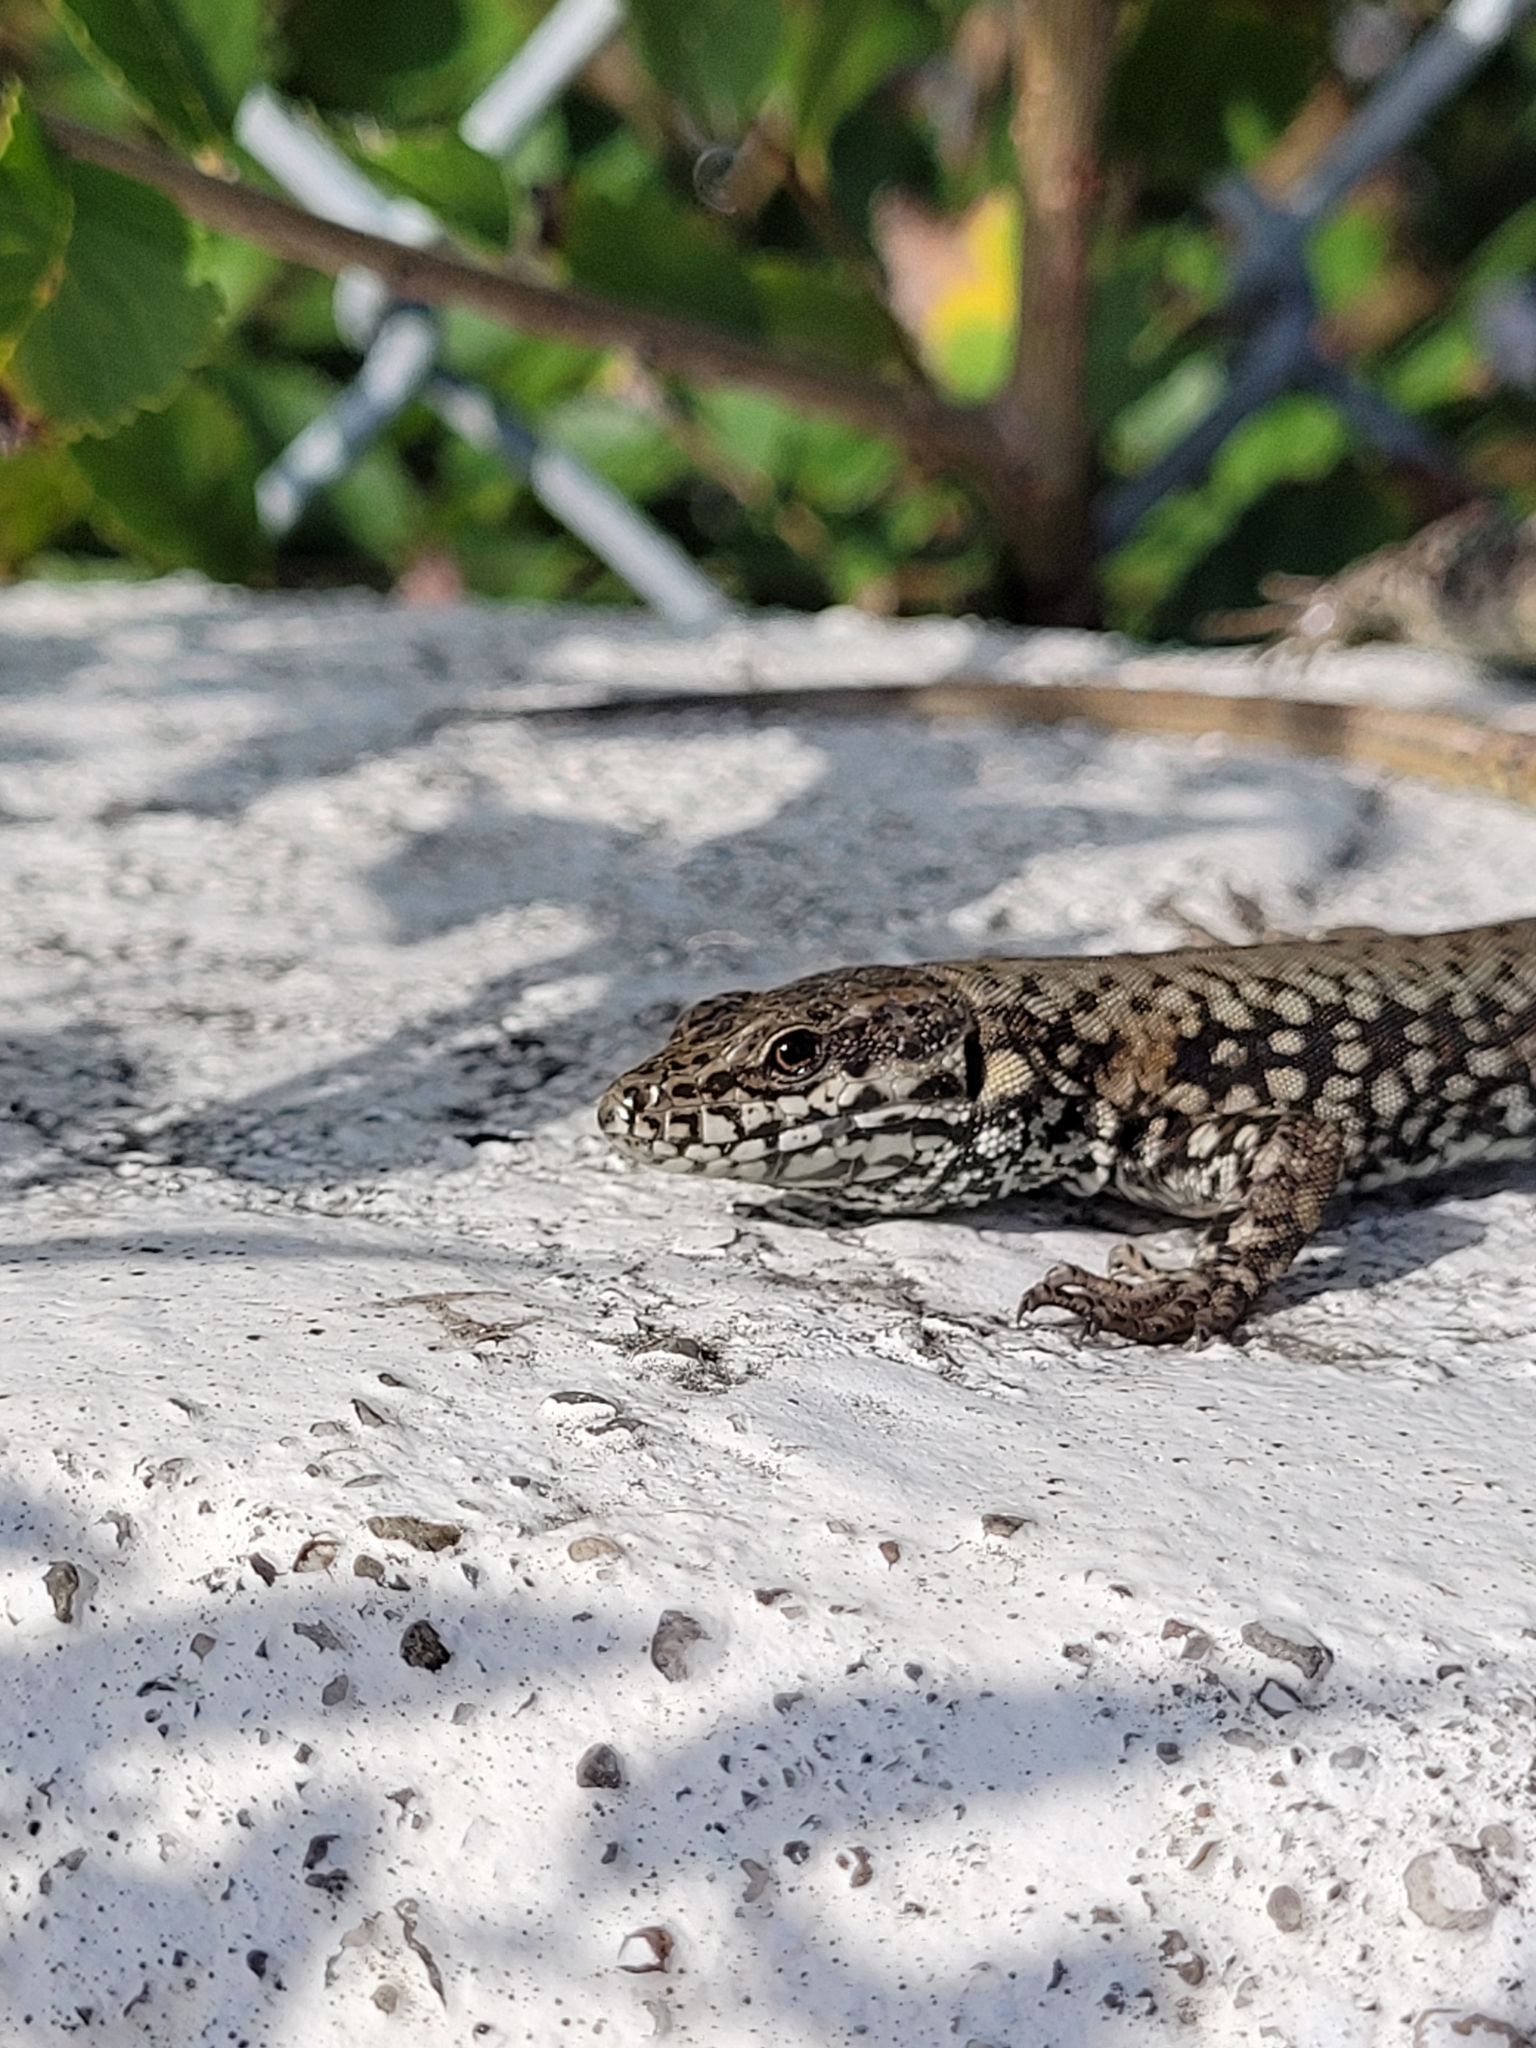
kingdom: Animalia
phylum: Chordata
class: Squamata
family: Lacertidae
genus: Podarcis
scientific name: Podarcis muralis
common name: Common wall lizard
